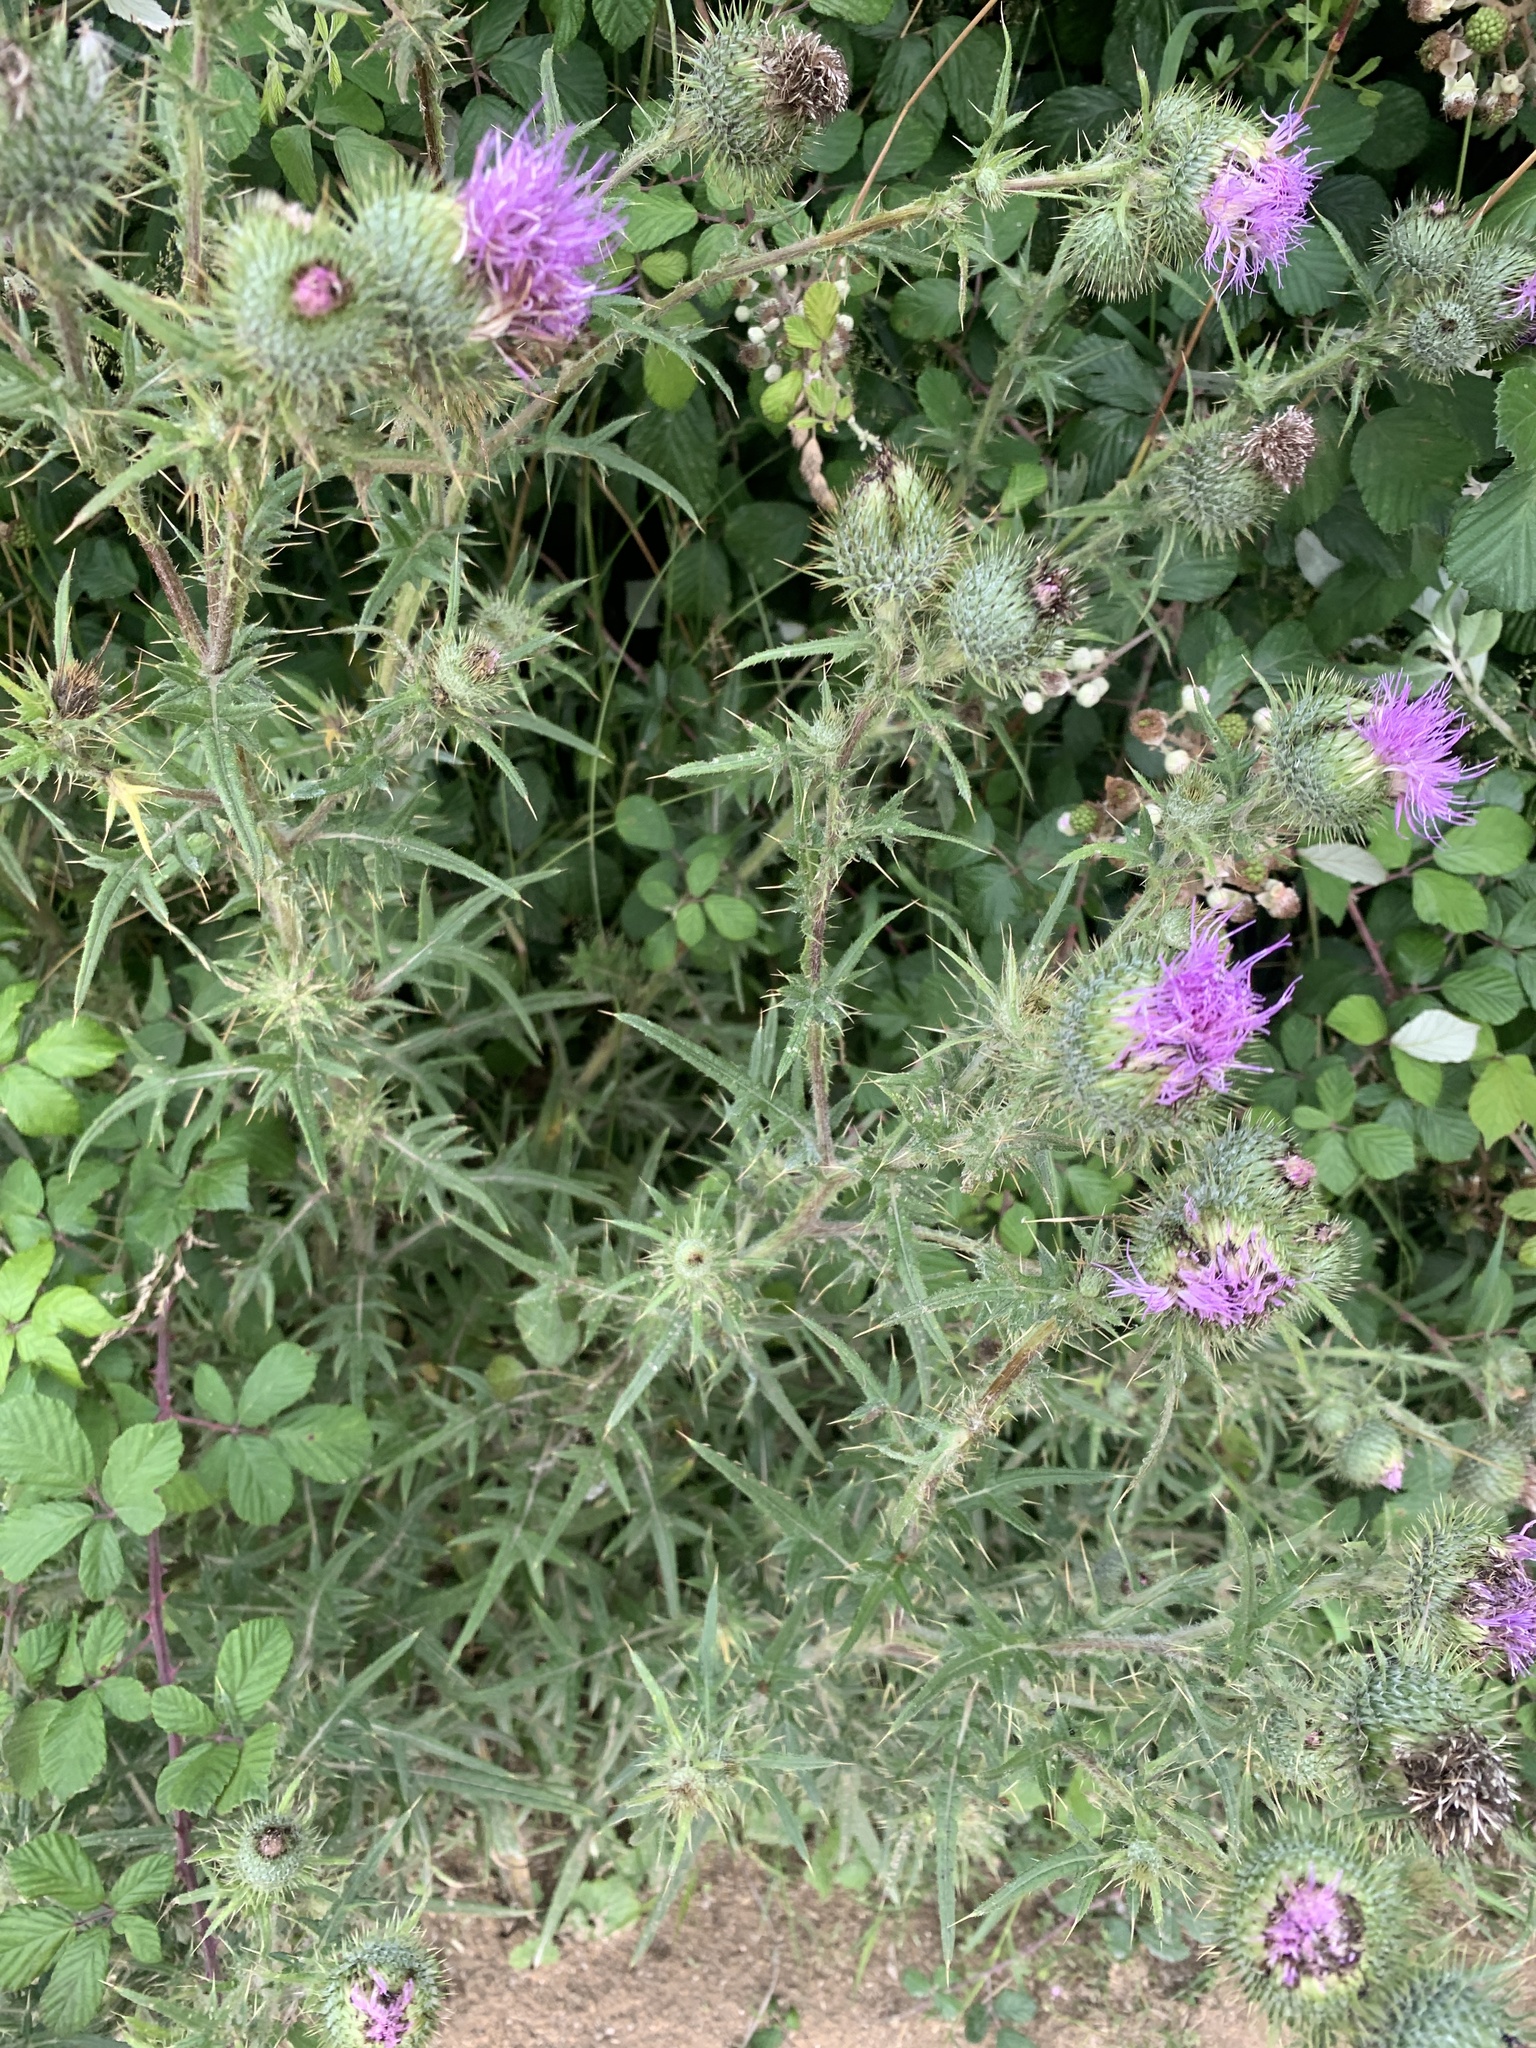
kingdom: Plantae
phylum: Tracheophyta
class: Magnoliopsida
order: Asterales
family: Asteraceae
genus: Cirsium
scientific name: Cirsium vulgare
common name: Bull thistle
